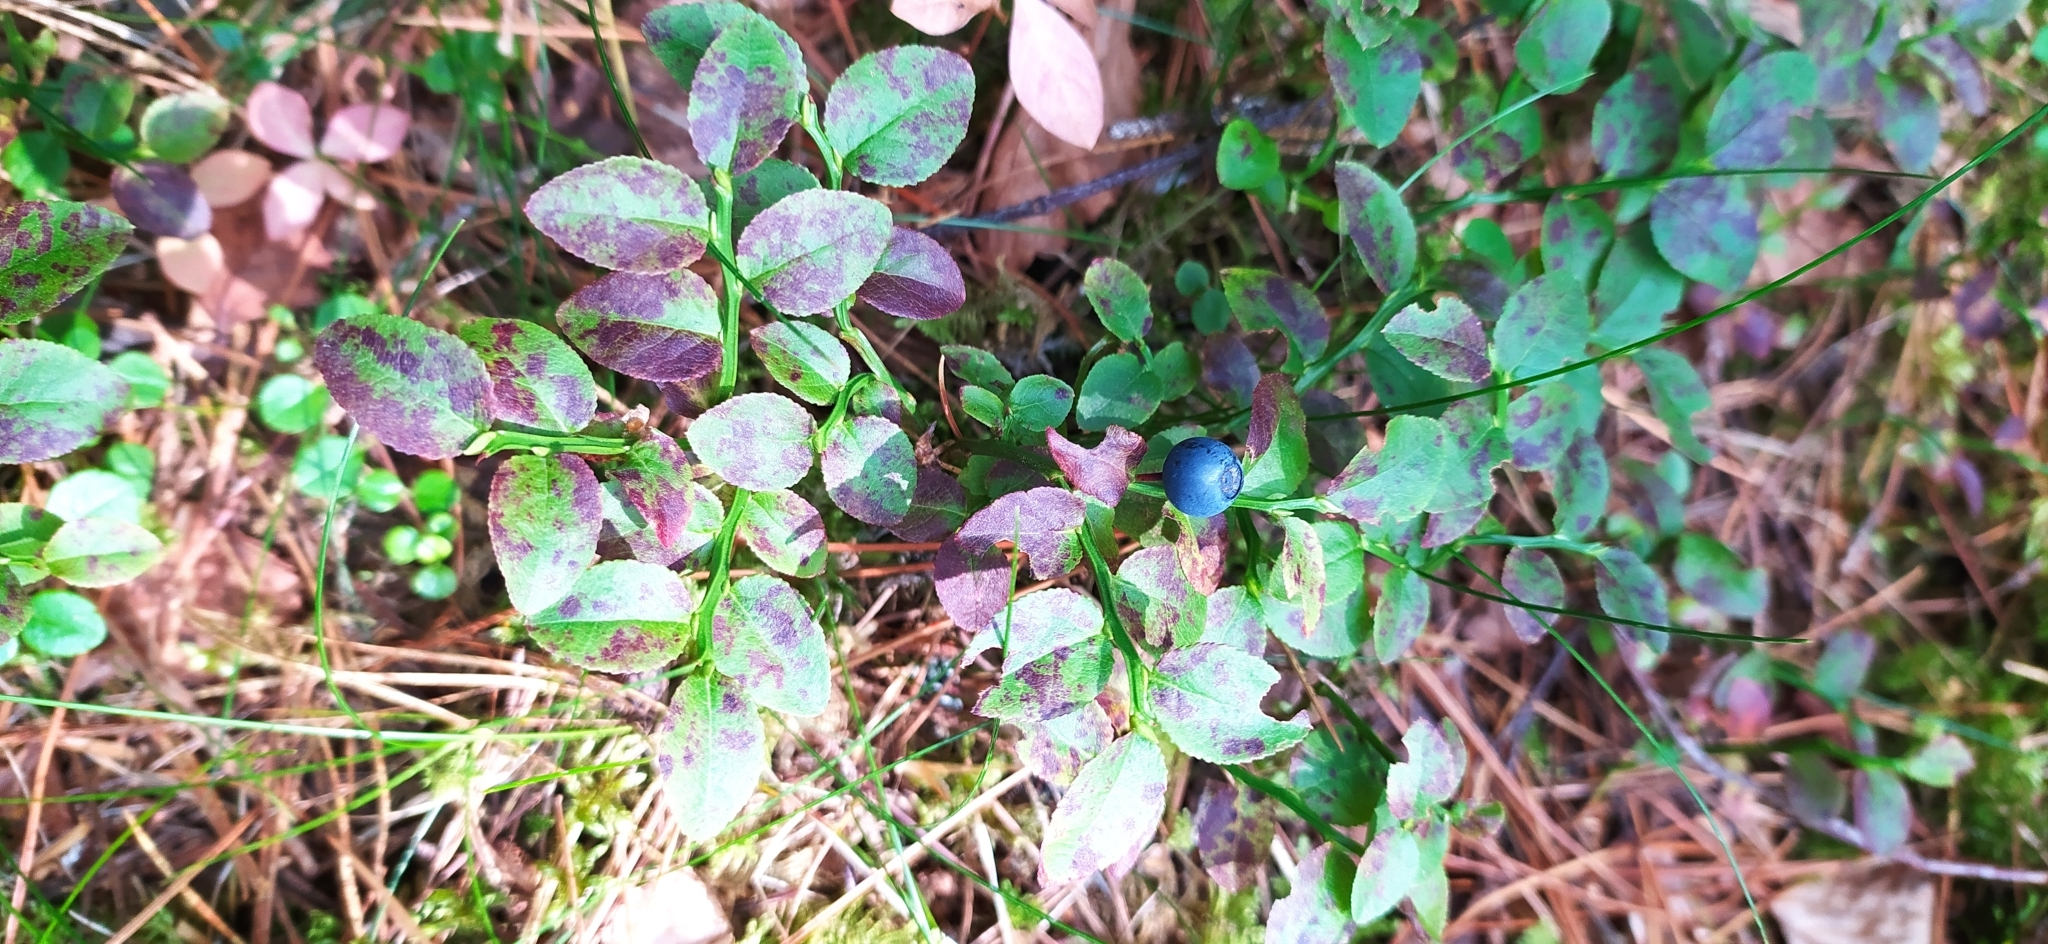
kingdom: Plantae
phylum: Tracheophyta
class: Magnoliopsida
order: Ericales
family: Ericaceae
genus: Vaccinium
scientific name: Vaccinium myrtillus
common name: Bilberry
